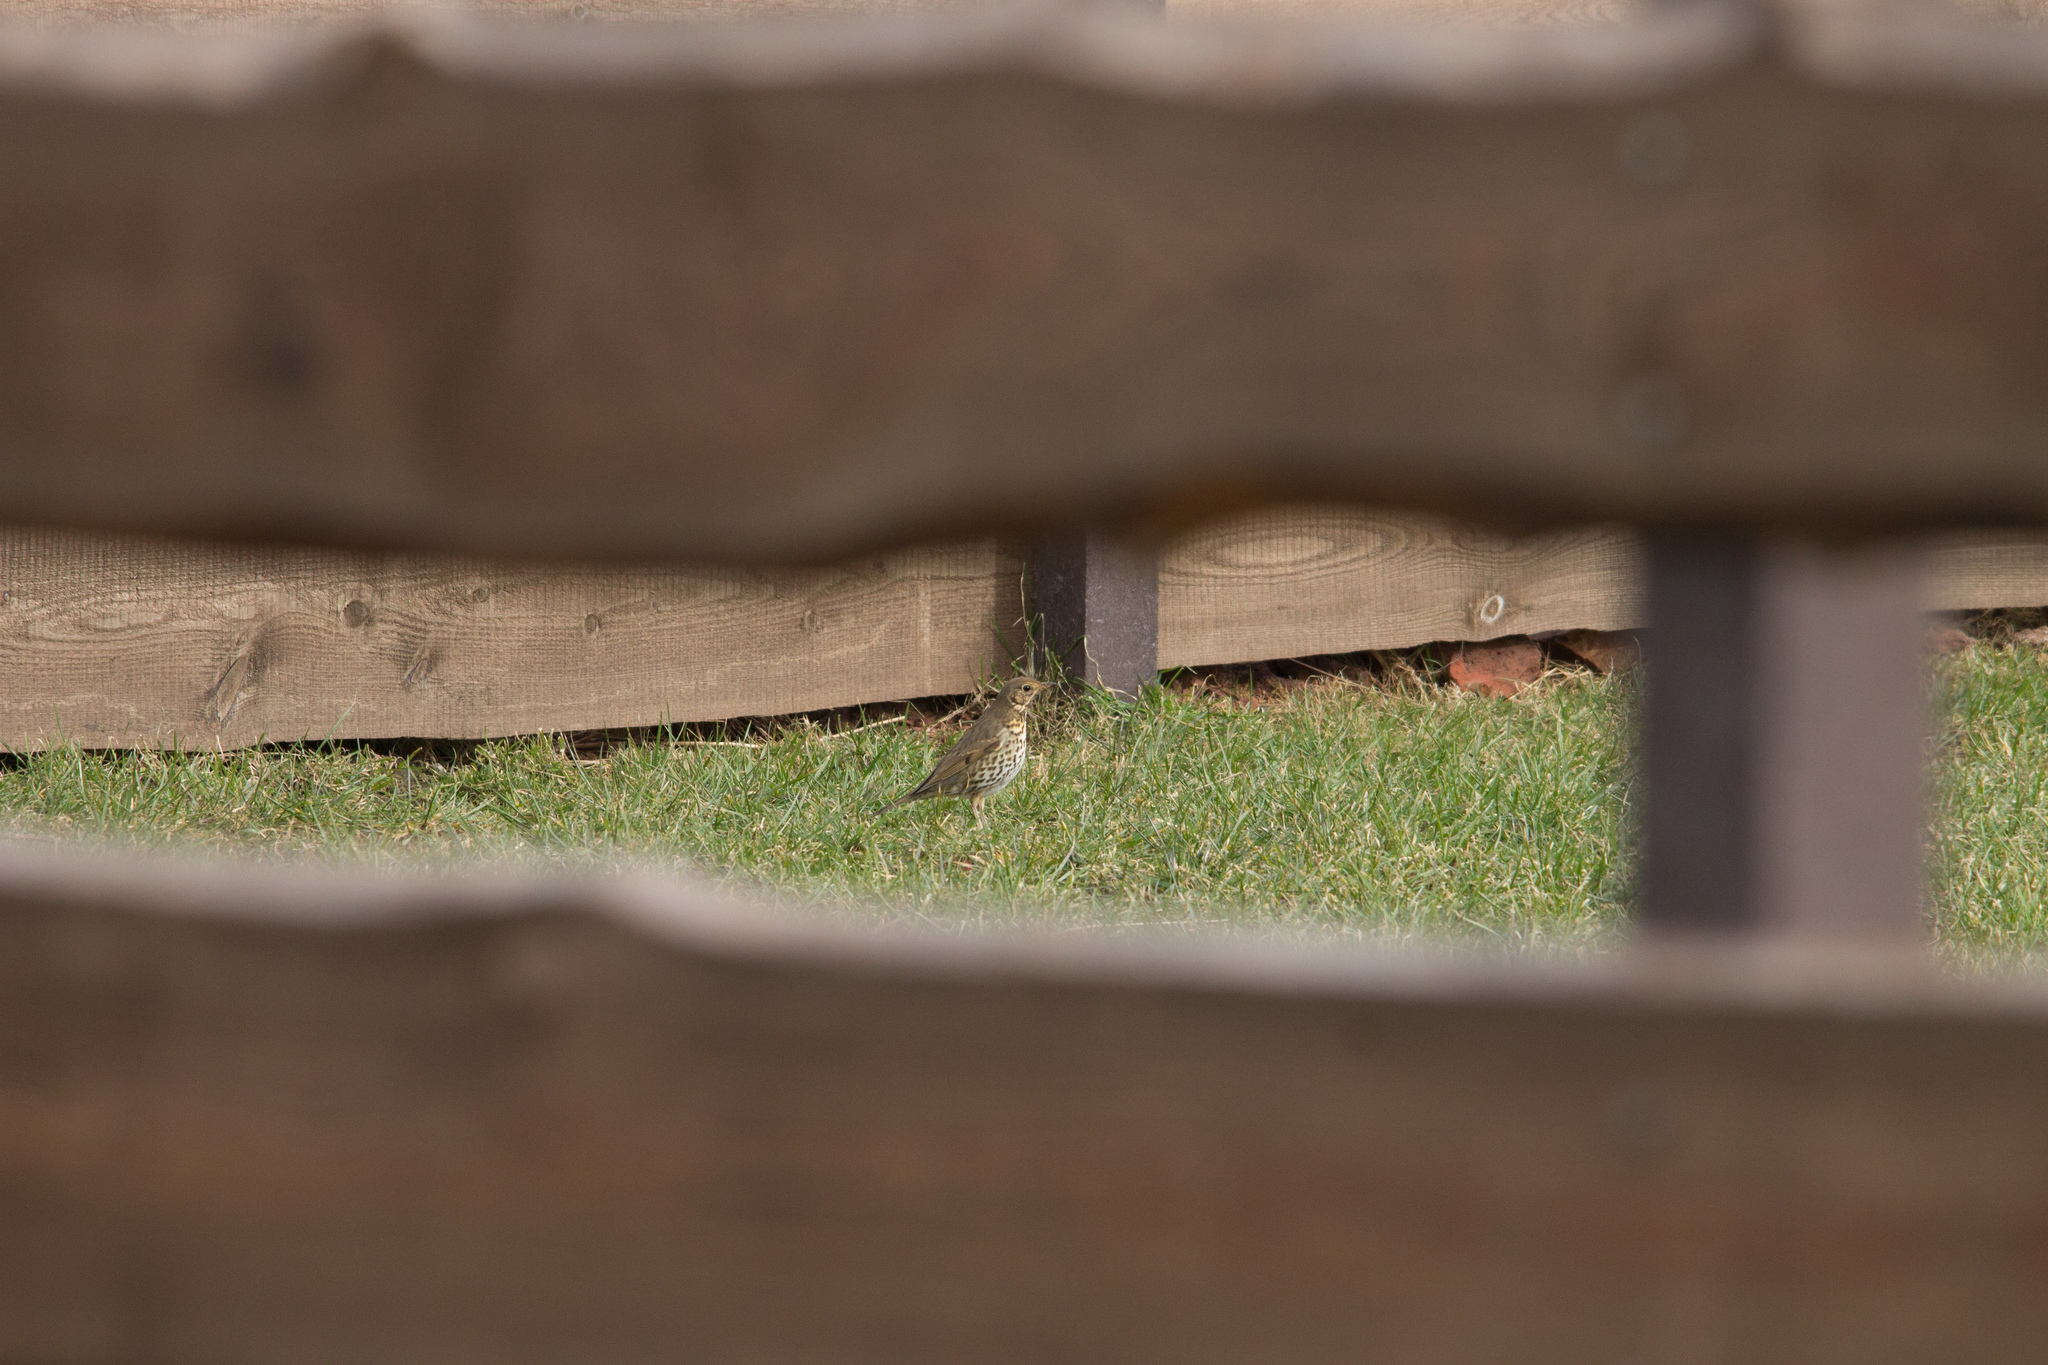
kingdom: Animalia
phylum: Chordata
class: Aves
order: Passeriformes
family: Turdidae
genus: Turdus
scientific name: Turdus philomelos
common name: Song thrush
